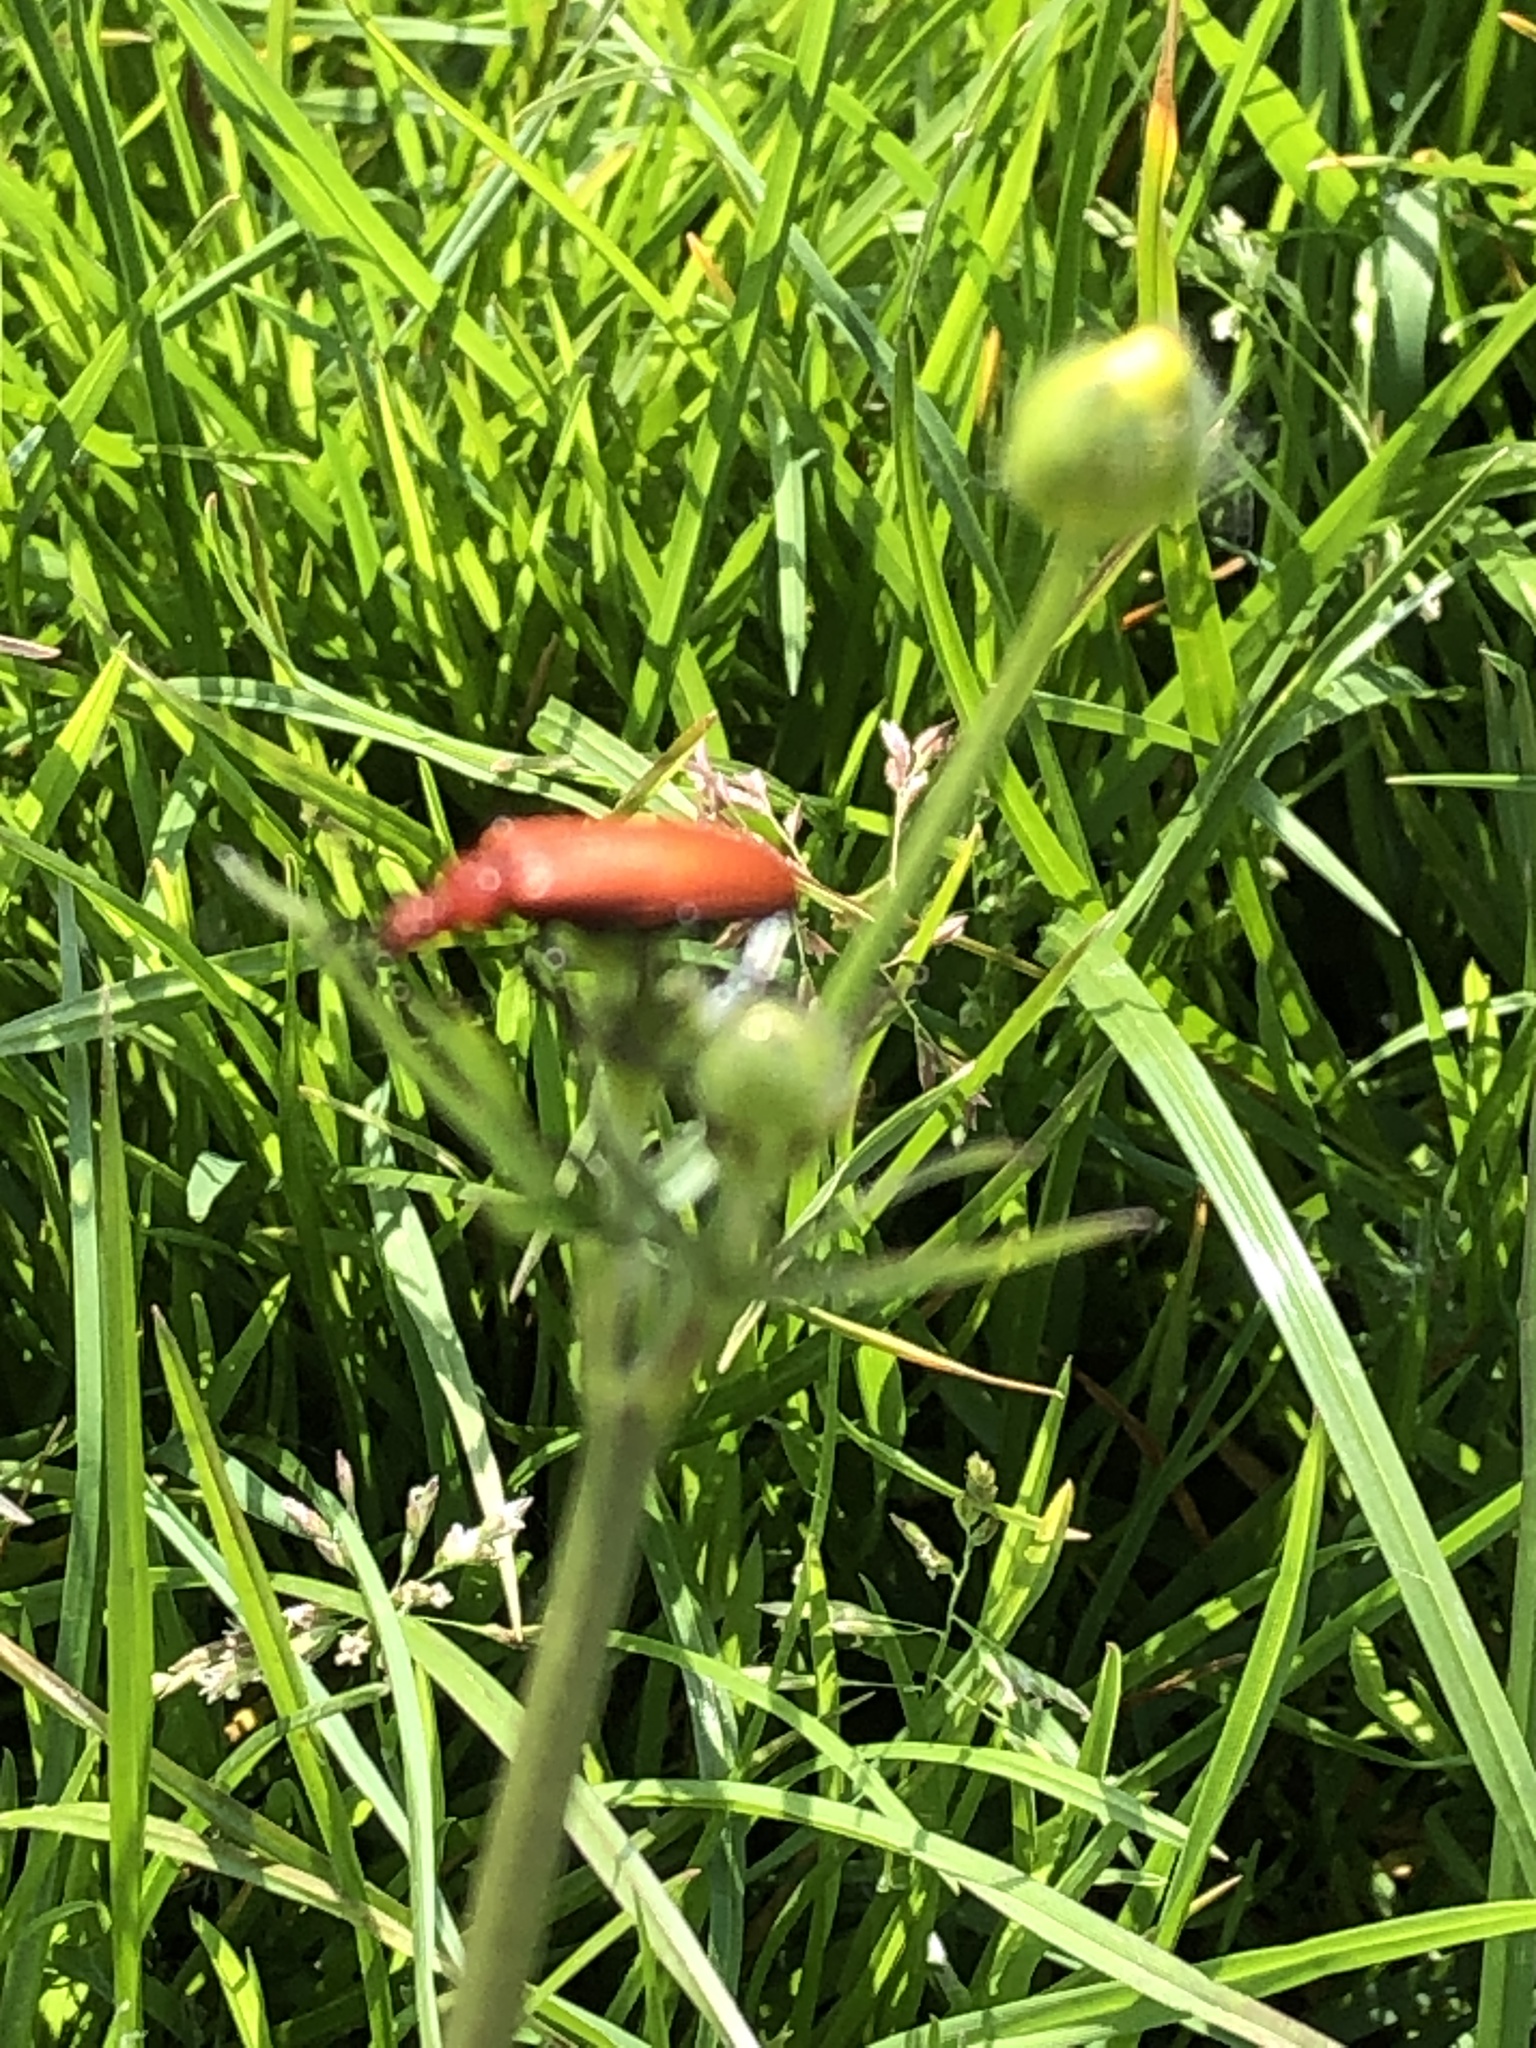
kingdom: Animalia
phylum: Arthropoda
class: Insecta
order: Coleoptera
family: Pyrochroidae
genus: Pyrochroa
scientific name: Pyrochroa serraticornis
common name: Red-headed cardinal beetle
